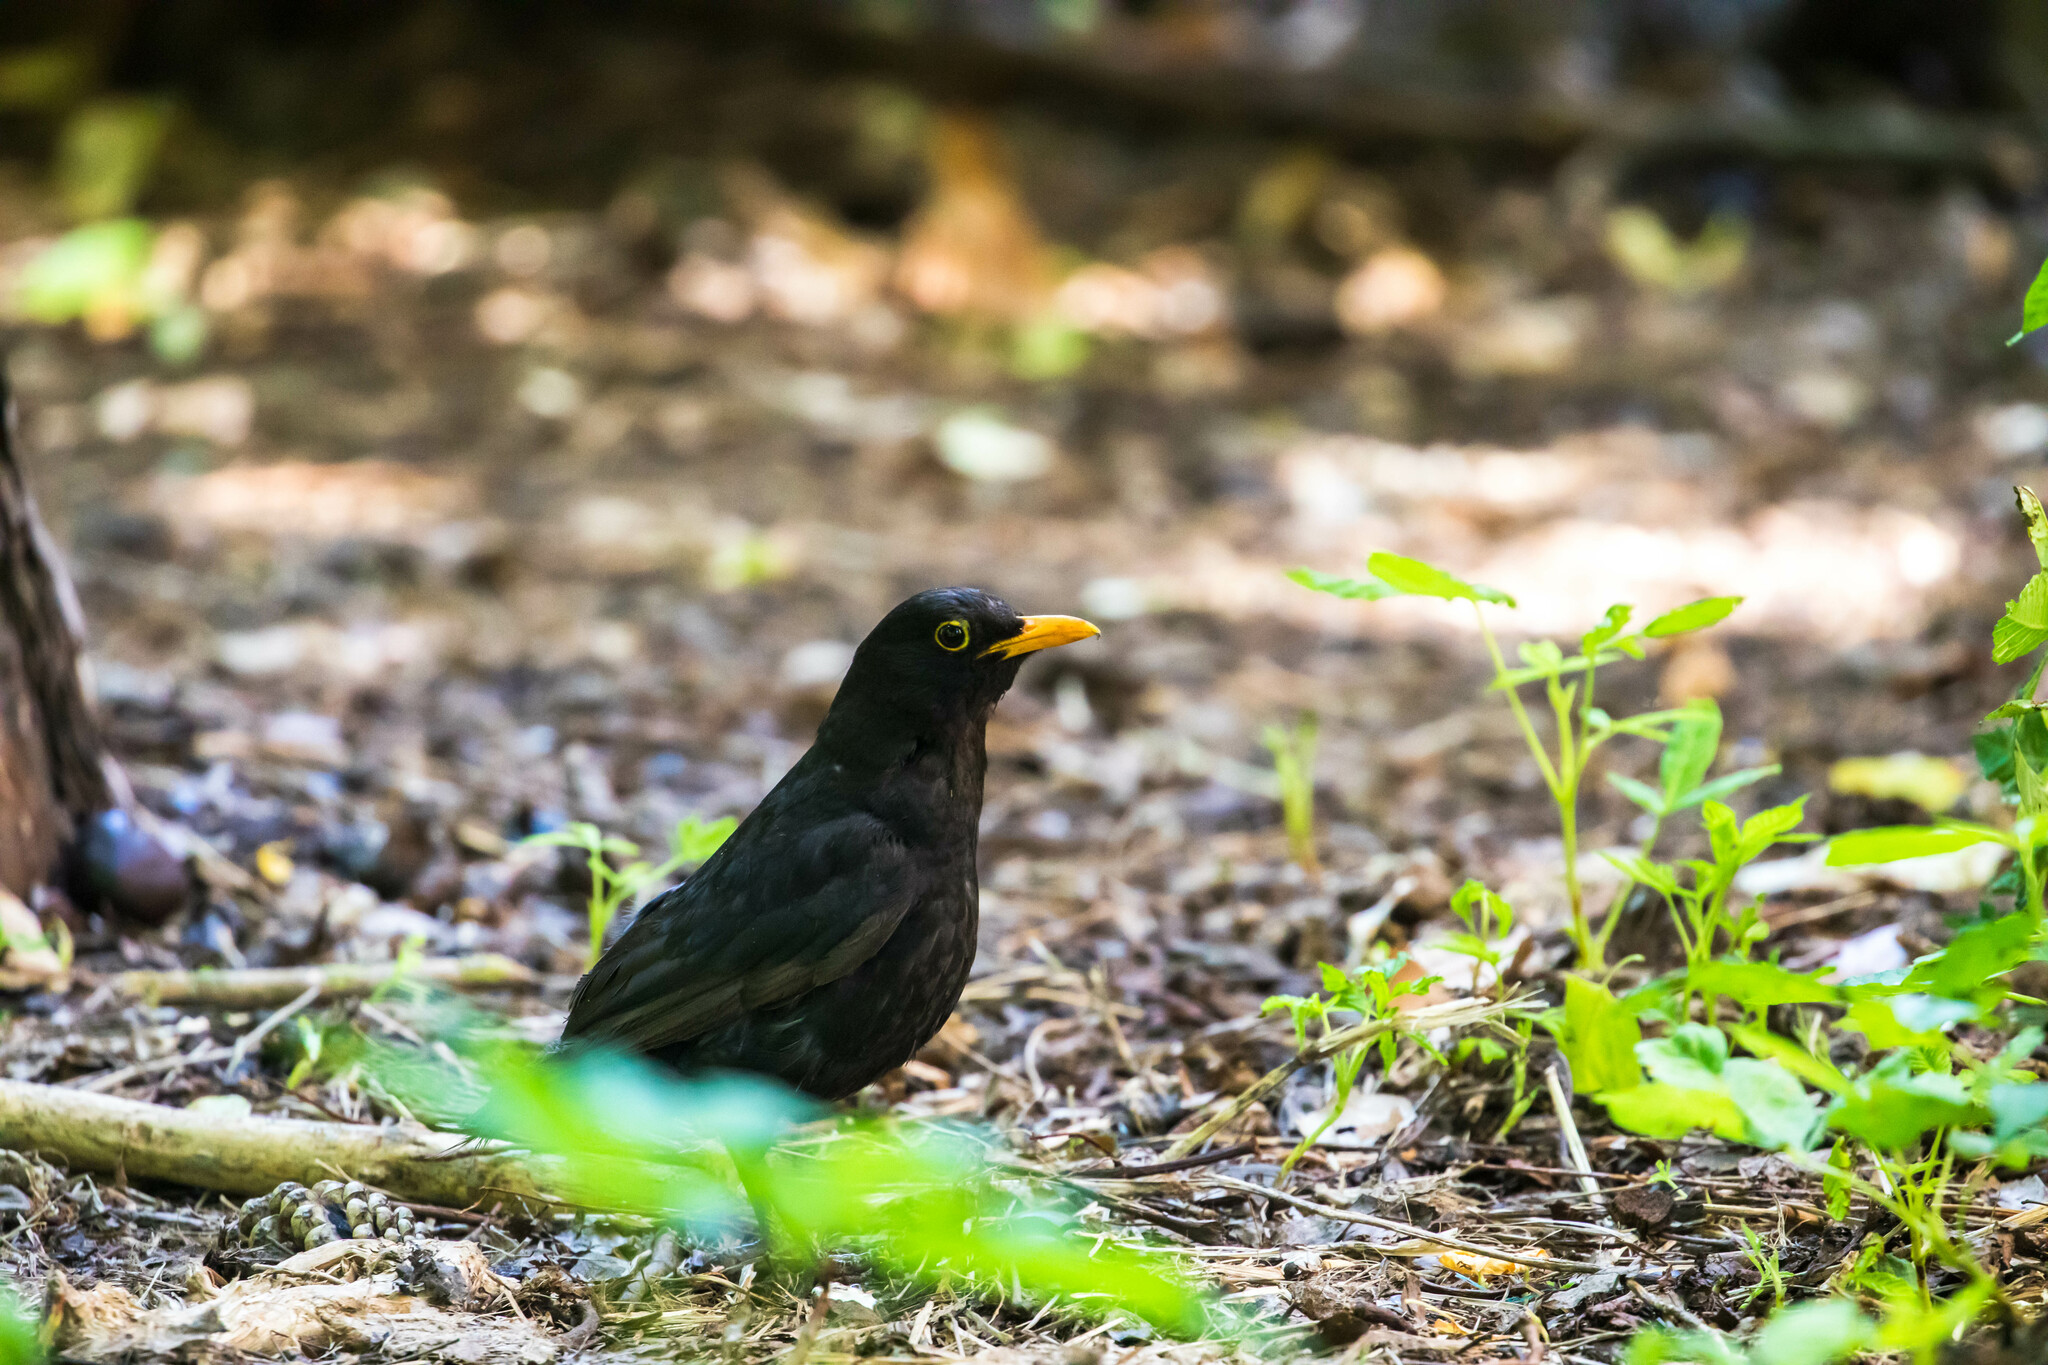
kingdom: Animalia
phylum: Chordata
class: Aves
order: Passeriformes
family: Turdidae
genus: Turdus
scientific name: Turdus merula
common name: Common blackbird
